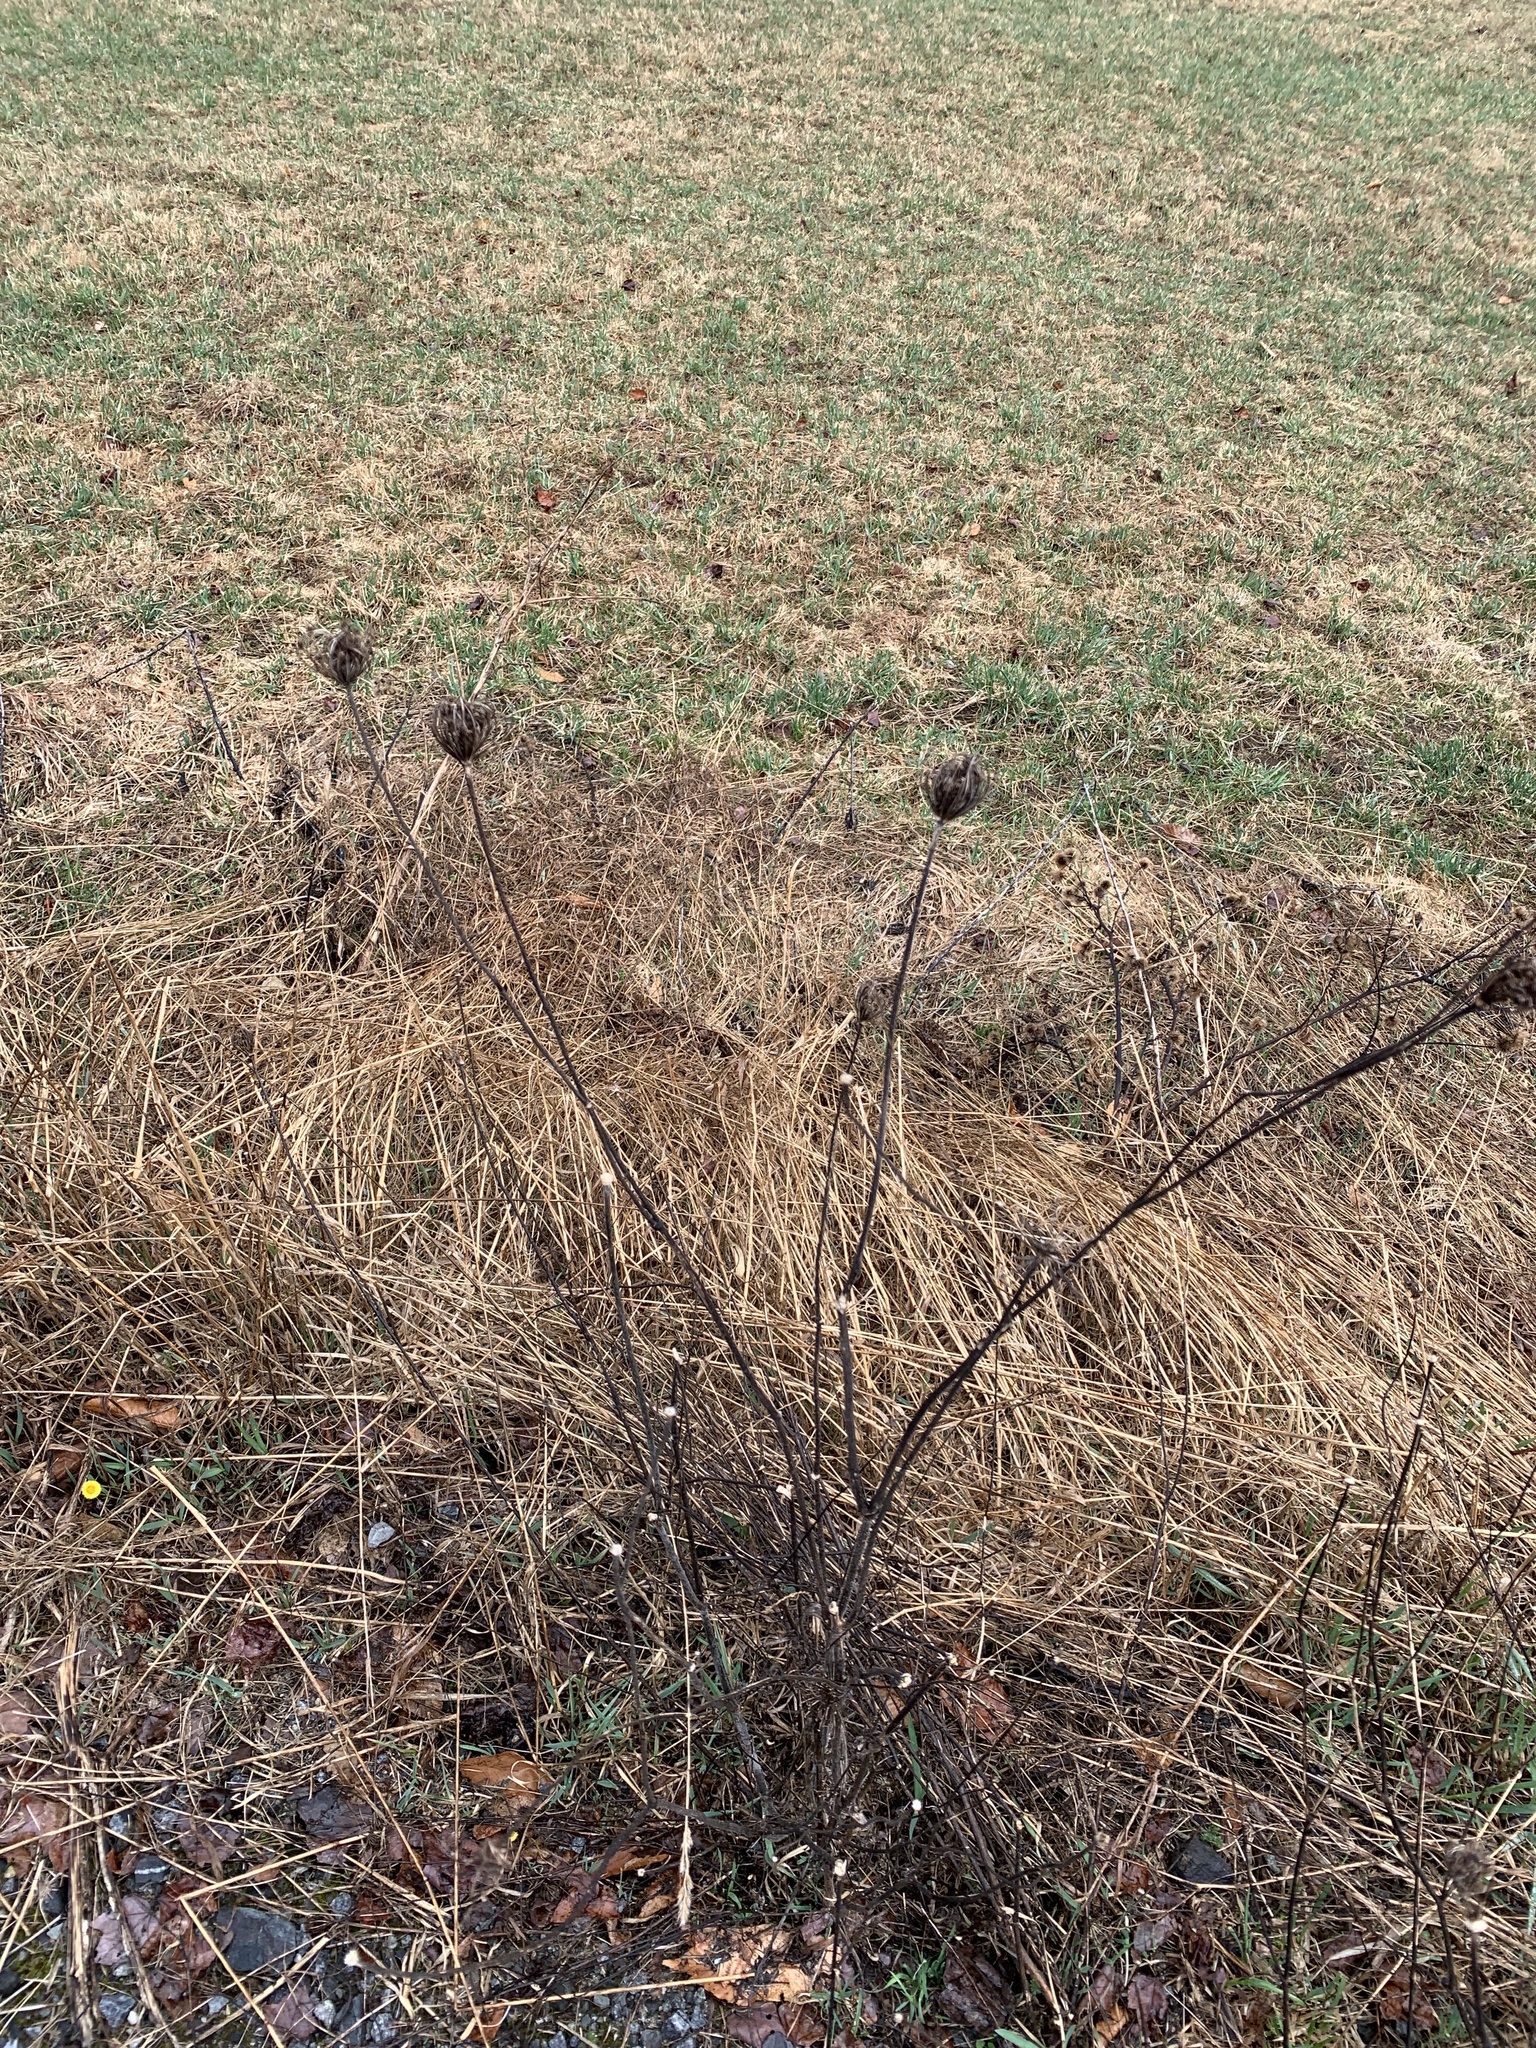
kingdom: Plantae
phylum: Tracheophyta
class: Magnoliopsida
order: Apiales
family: Apiaceae
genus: Daucus
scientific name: Daucus carota
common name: Wild carrot
